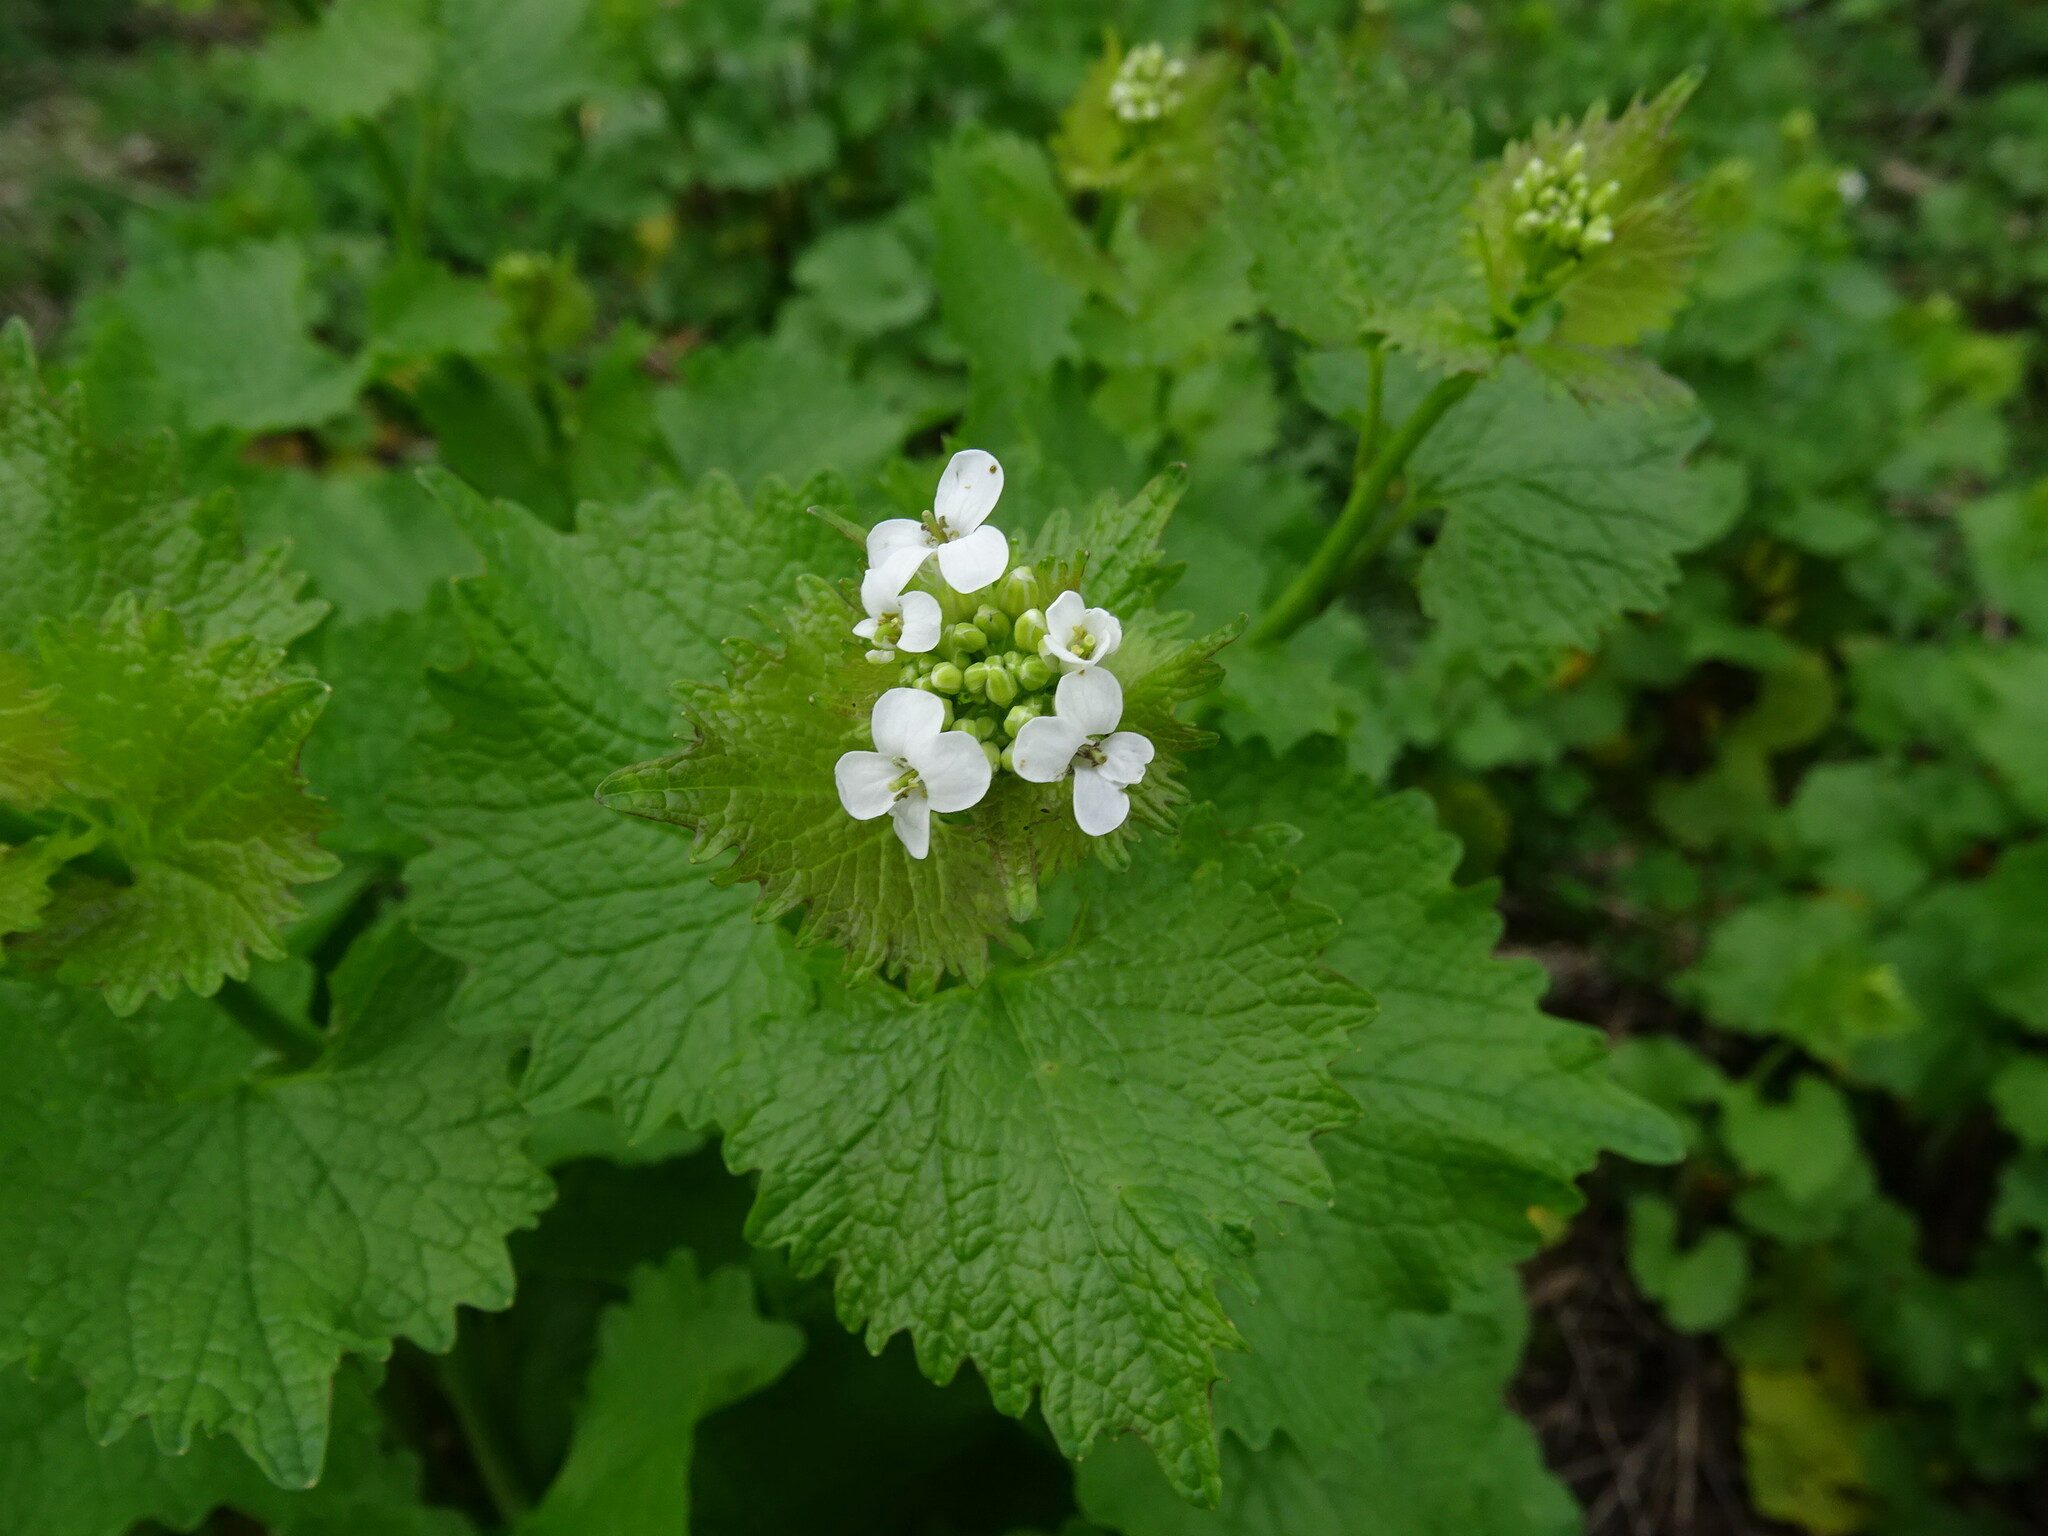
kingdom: Plantae
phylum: Tracheophyta
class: Magnoliopsida
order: Brassicales
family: Brassicaceae
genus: Alliaria
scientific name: Alliaria petiolata
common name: Garlic mustard
